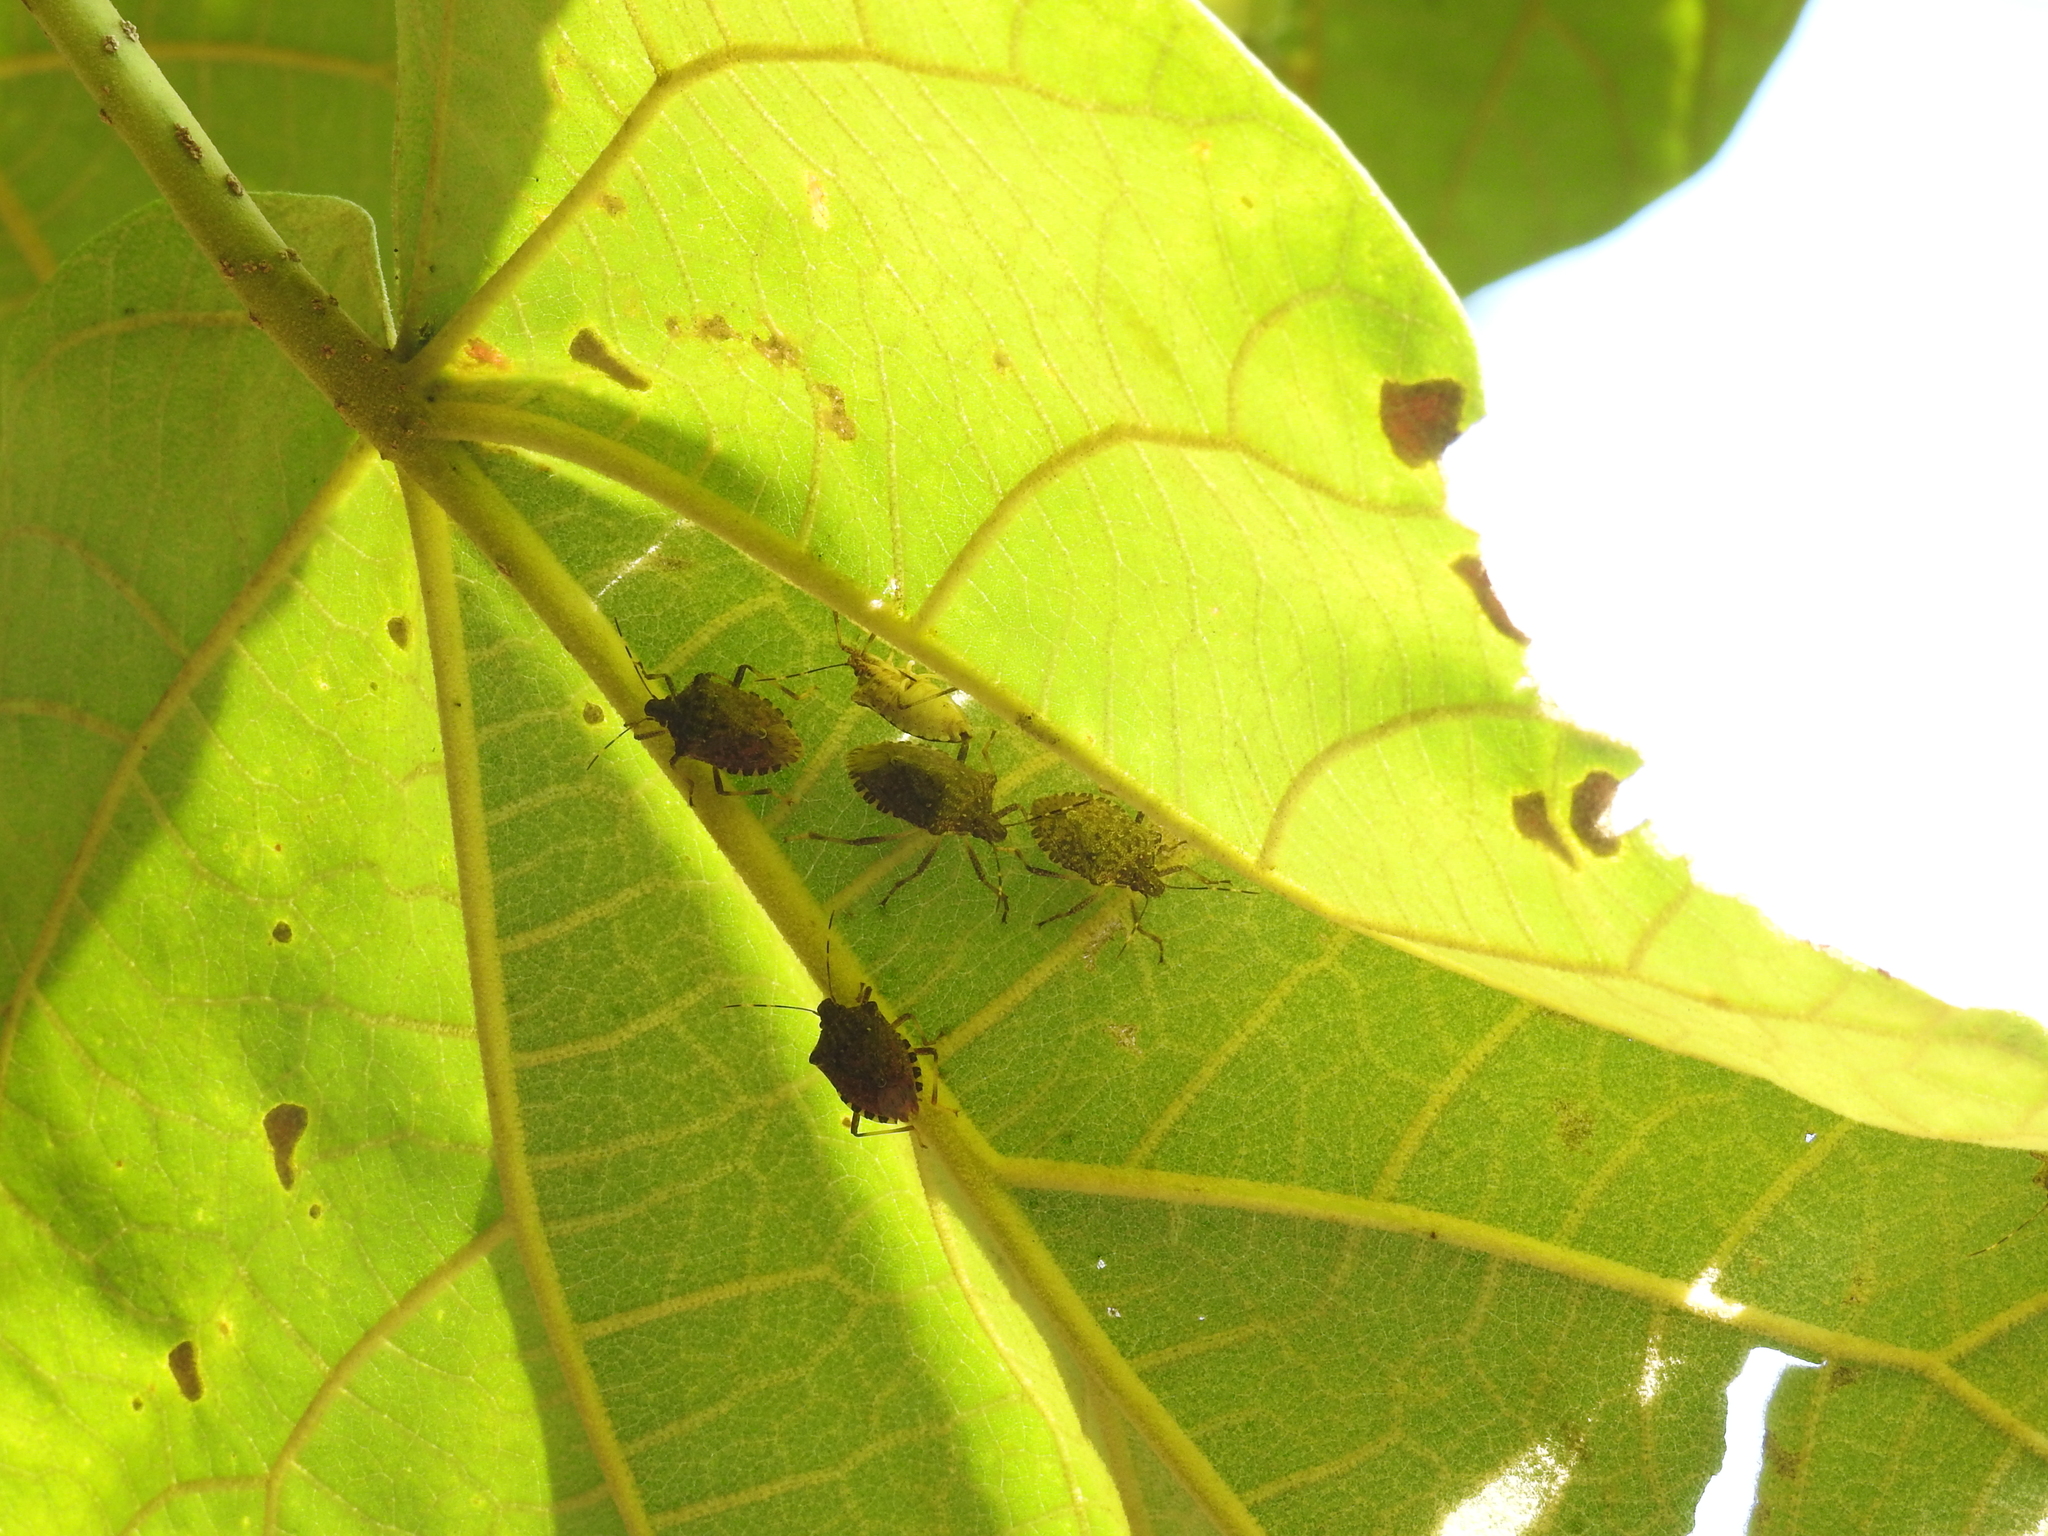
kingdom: Animalia
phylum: Arthropoda
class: Insecta
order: Hemiptera
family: Pentatomidae
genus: Halyomorpha
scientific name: Halyomorpha halys
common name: Brown marmorated stink bug
